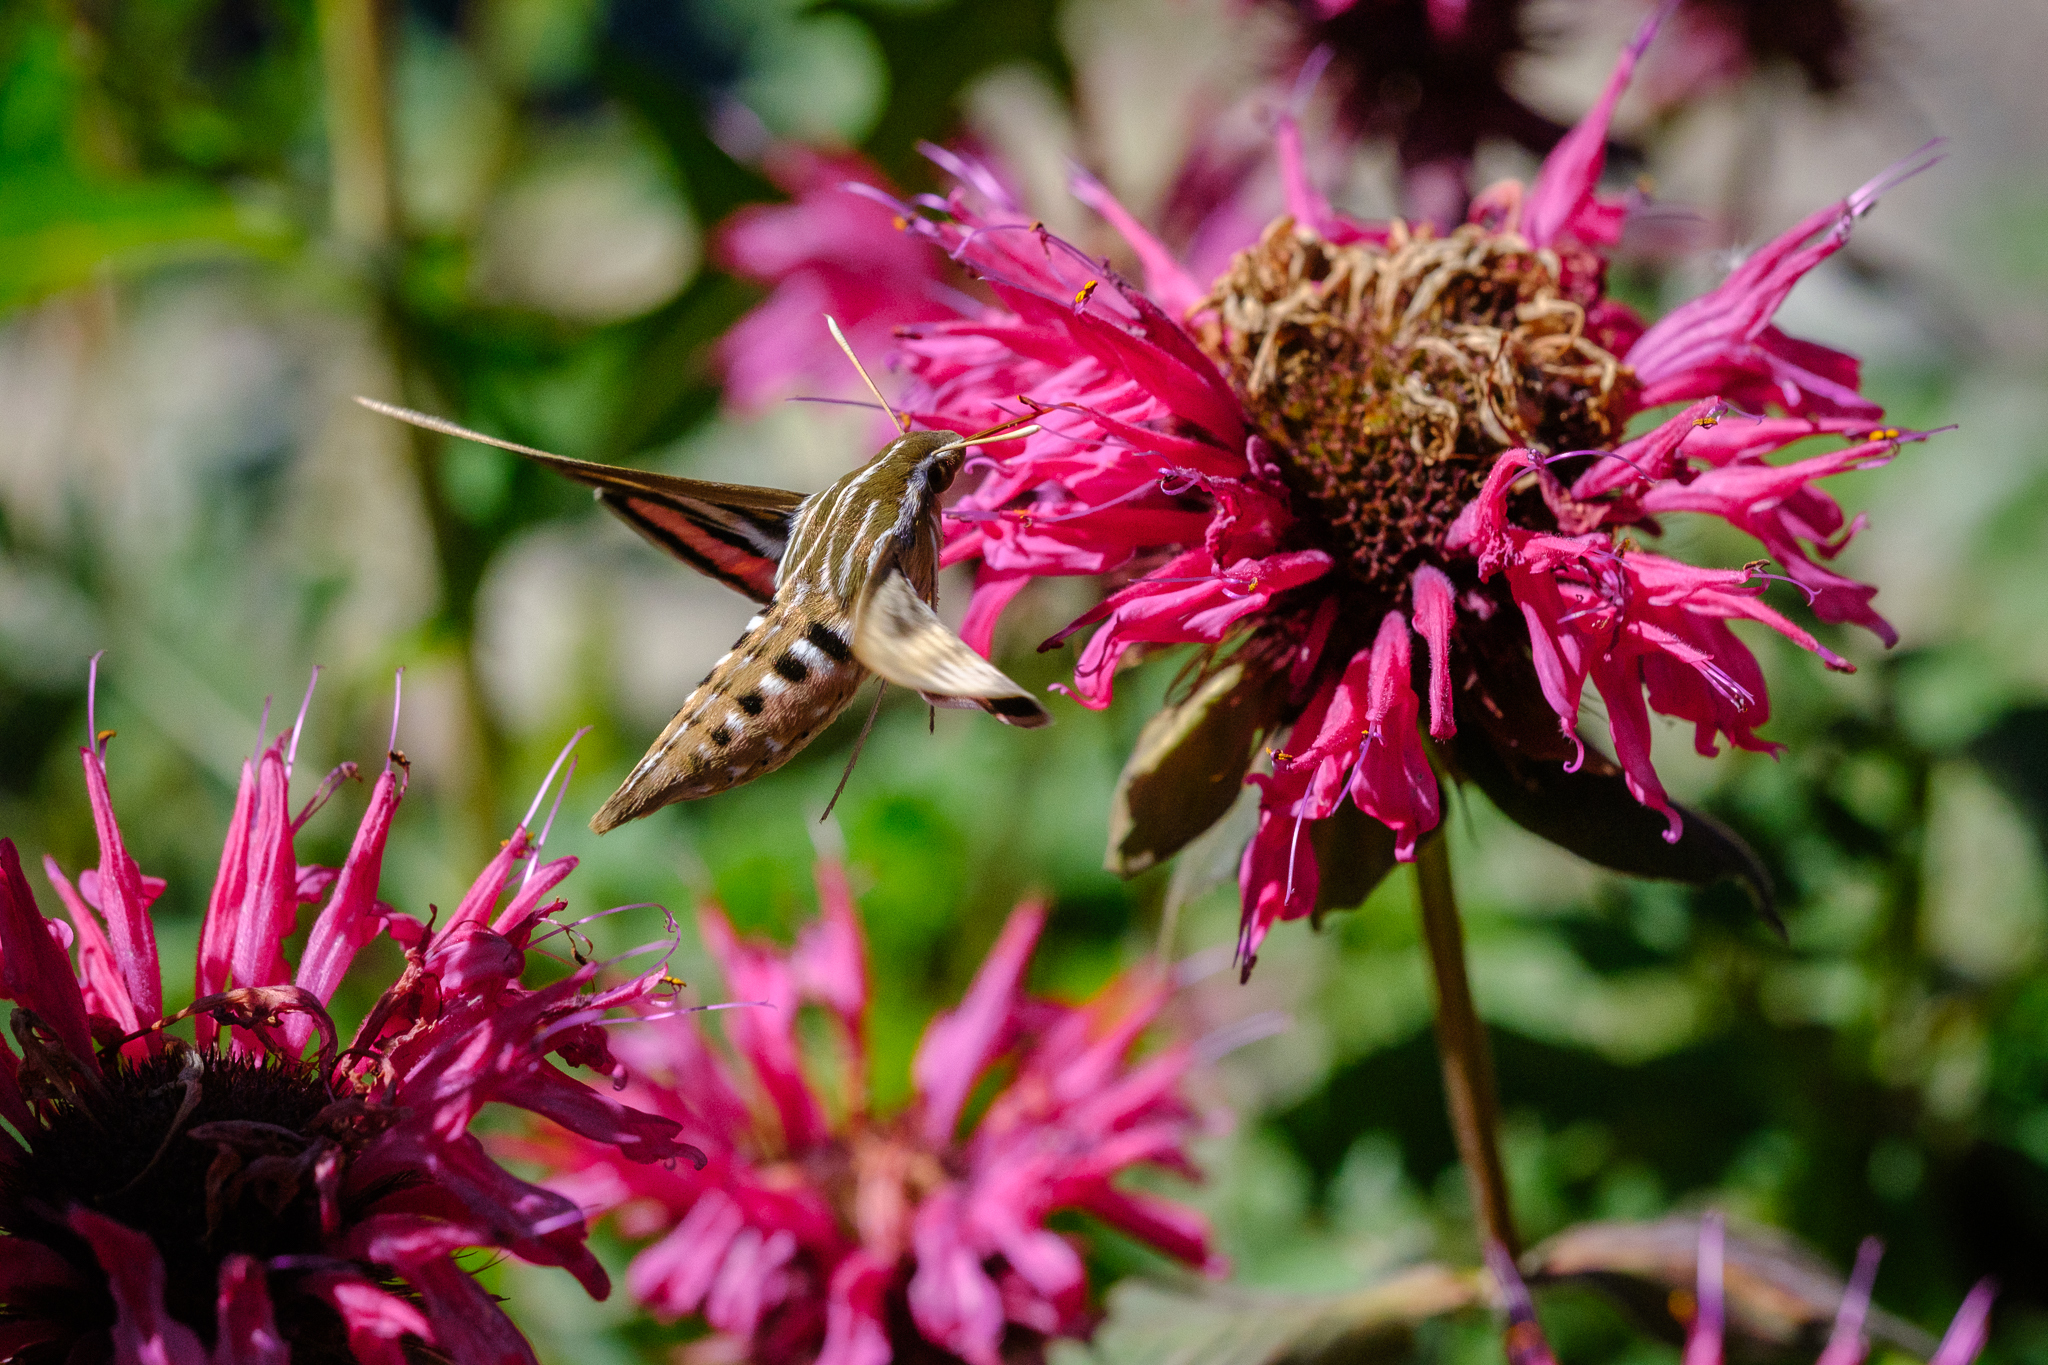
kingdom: Animalia
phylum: Arthropoda
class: Insecta
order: Lepidoptera
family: Sphingidae
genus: Hyles
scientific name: Hyles lineata
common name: White-lined sphinx
